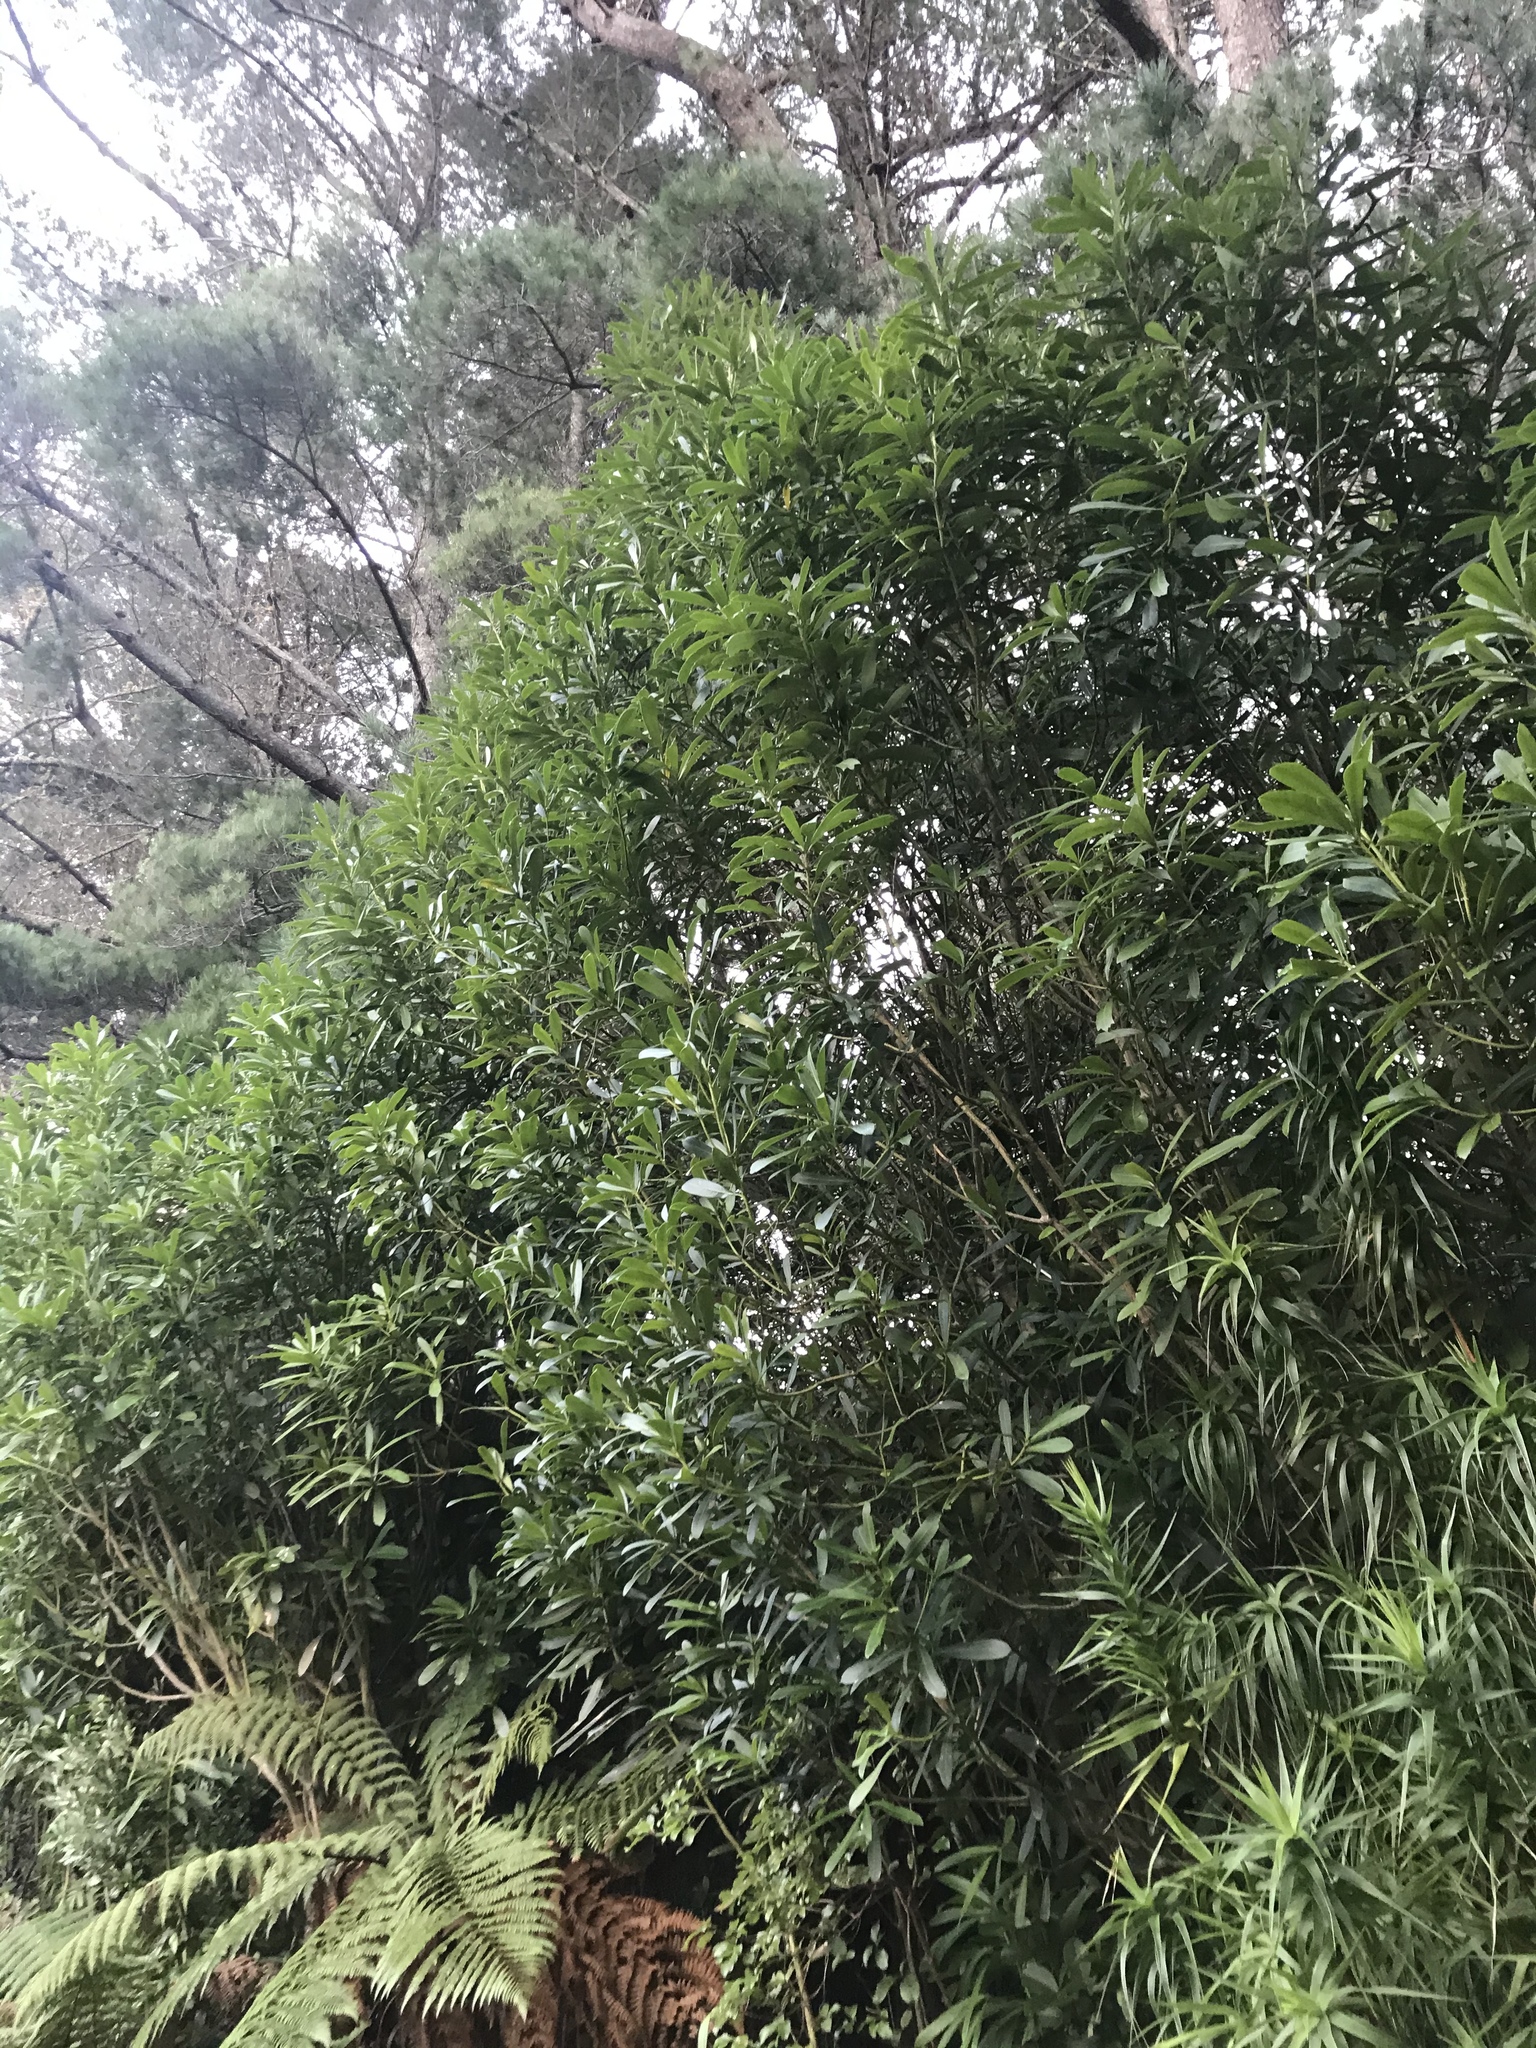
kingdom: Plantae
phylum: Tracheophyta
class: Magnoliopsida
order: Apiales
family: Araliaceae
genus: Pseudopanax
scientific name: Pseudopanax chathamicus
